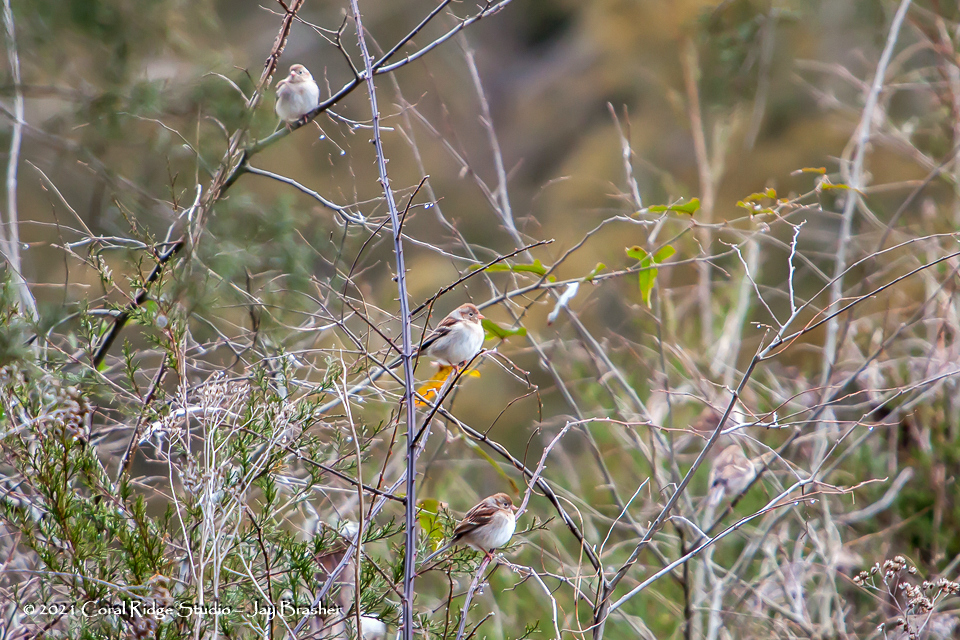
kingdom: Animalia
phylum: Chordata
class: Aves
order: Passeriformes
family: Passerellidae
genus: Spizella
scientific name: Spizella pusilla
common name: Field sparrow
